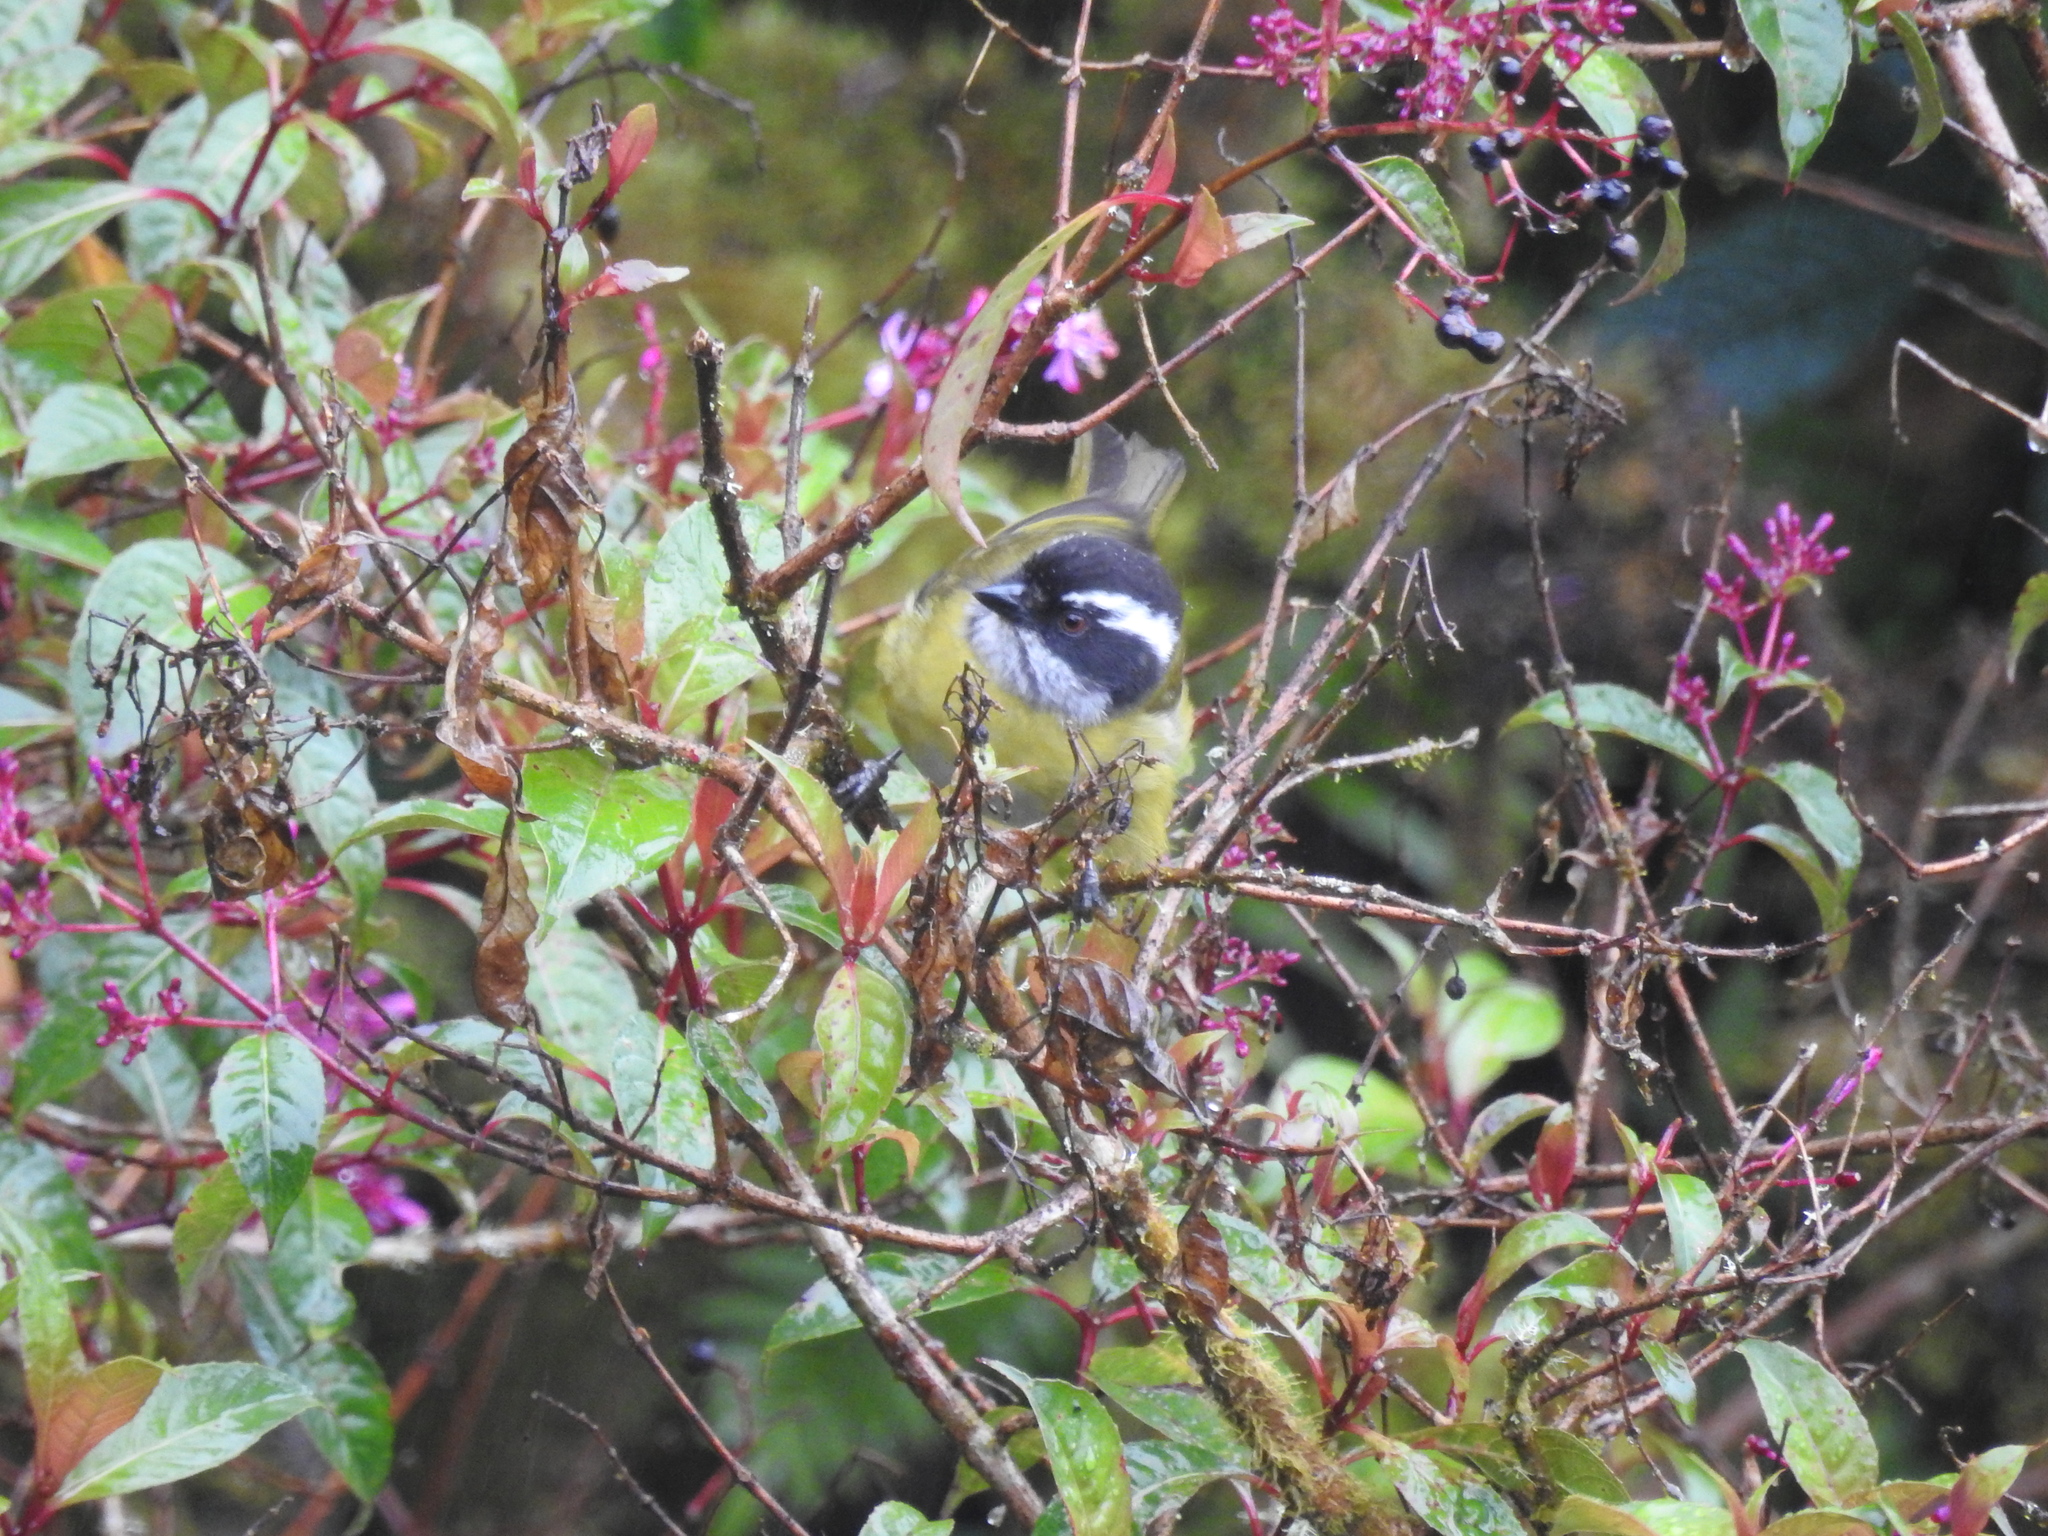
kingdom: Animalia
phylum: Chordata
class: Aves
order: Passeriformes
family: Passerellidae
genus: Chlorospingus
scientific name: Chlorospingus pileatus
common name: Sooty-capped bush-tanager
